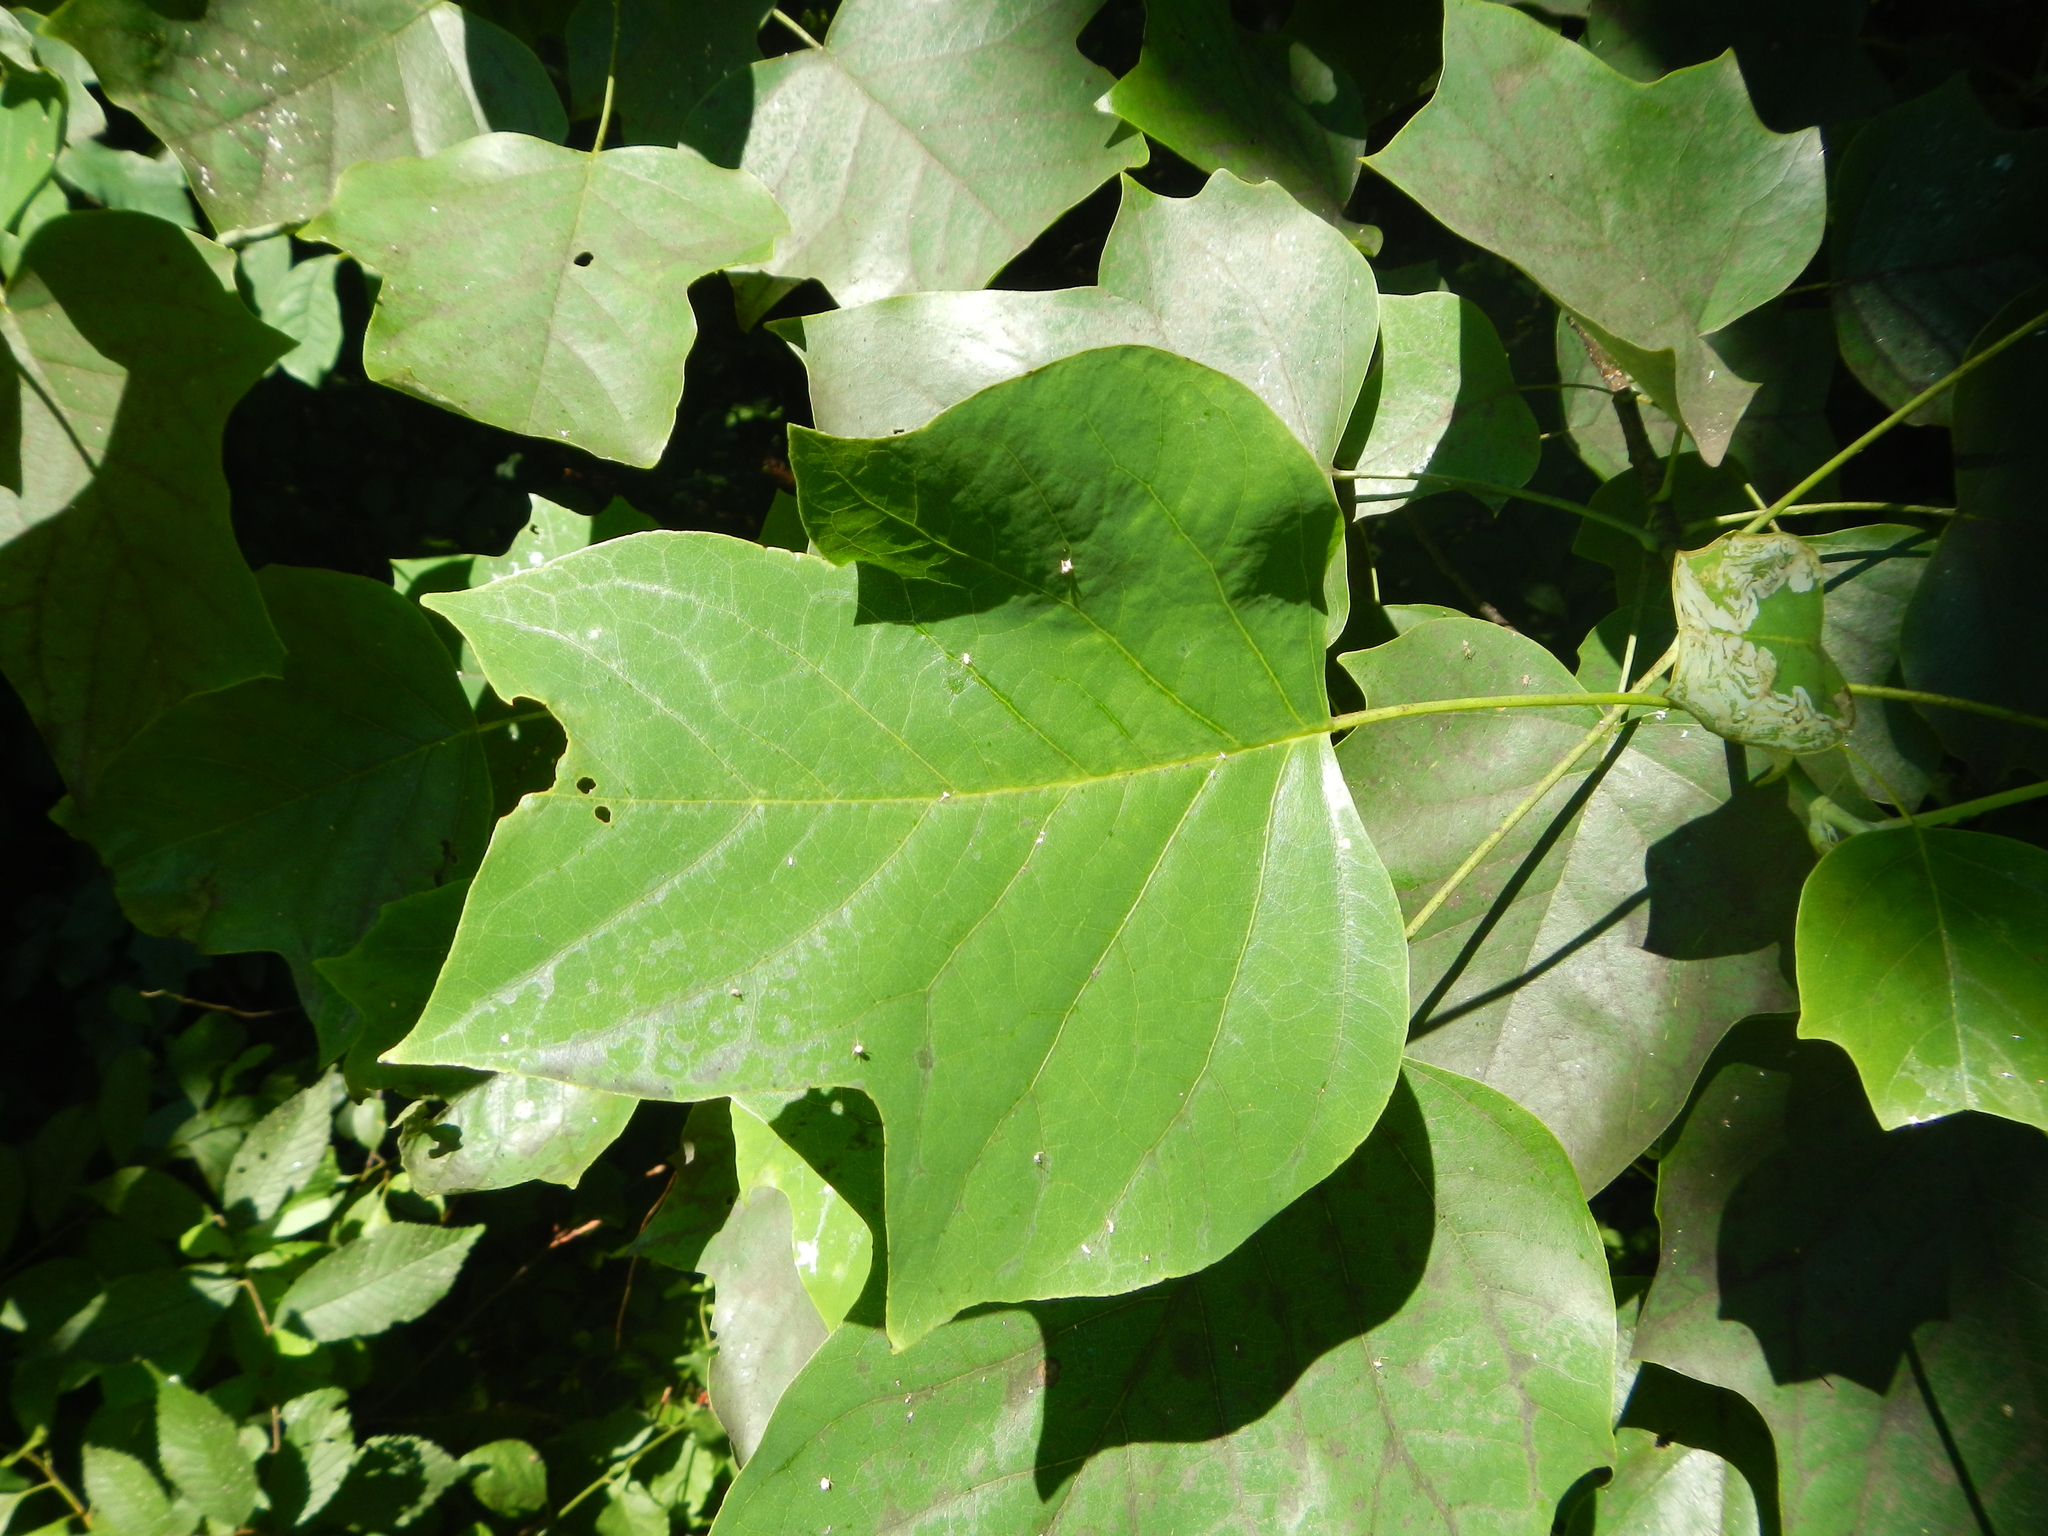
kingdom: Plantae
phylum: Tracheophyta
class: Magnoliopsida
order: Magnoliales
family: Magnoliaceae
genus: Liriodendron
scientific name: Liriodendron tulipifera
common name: Tulip tree
